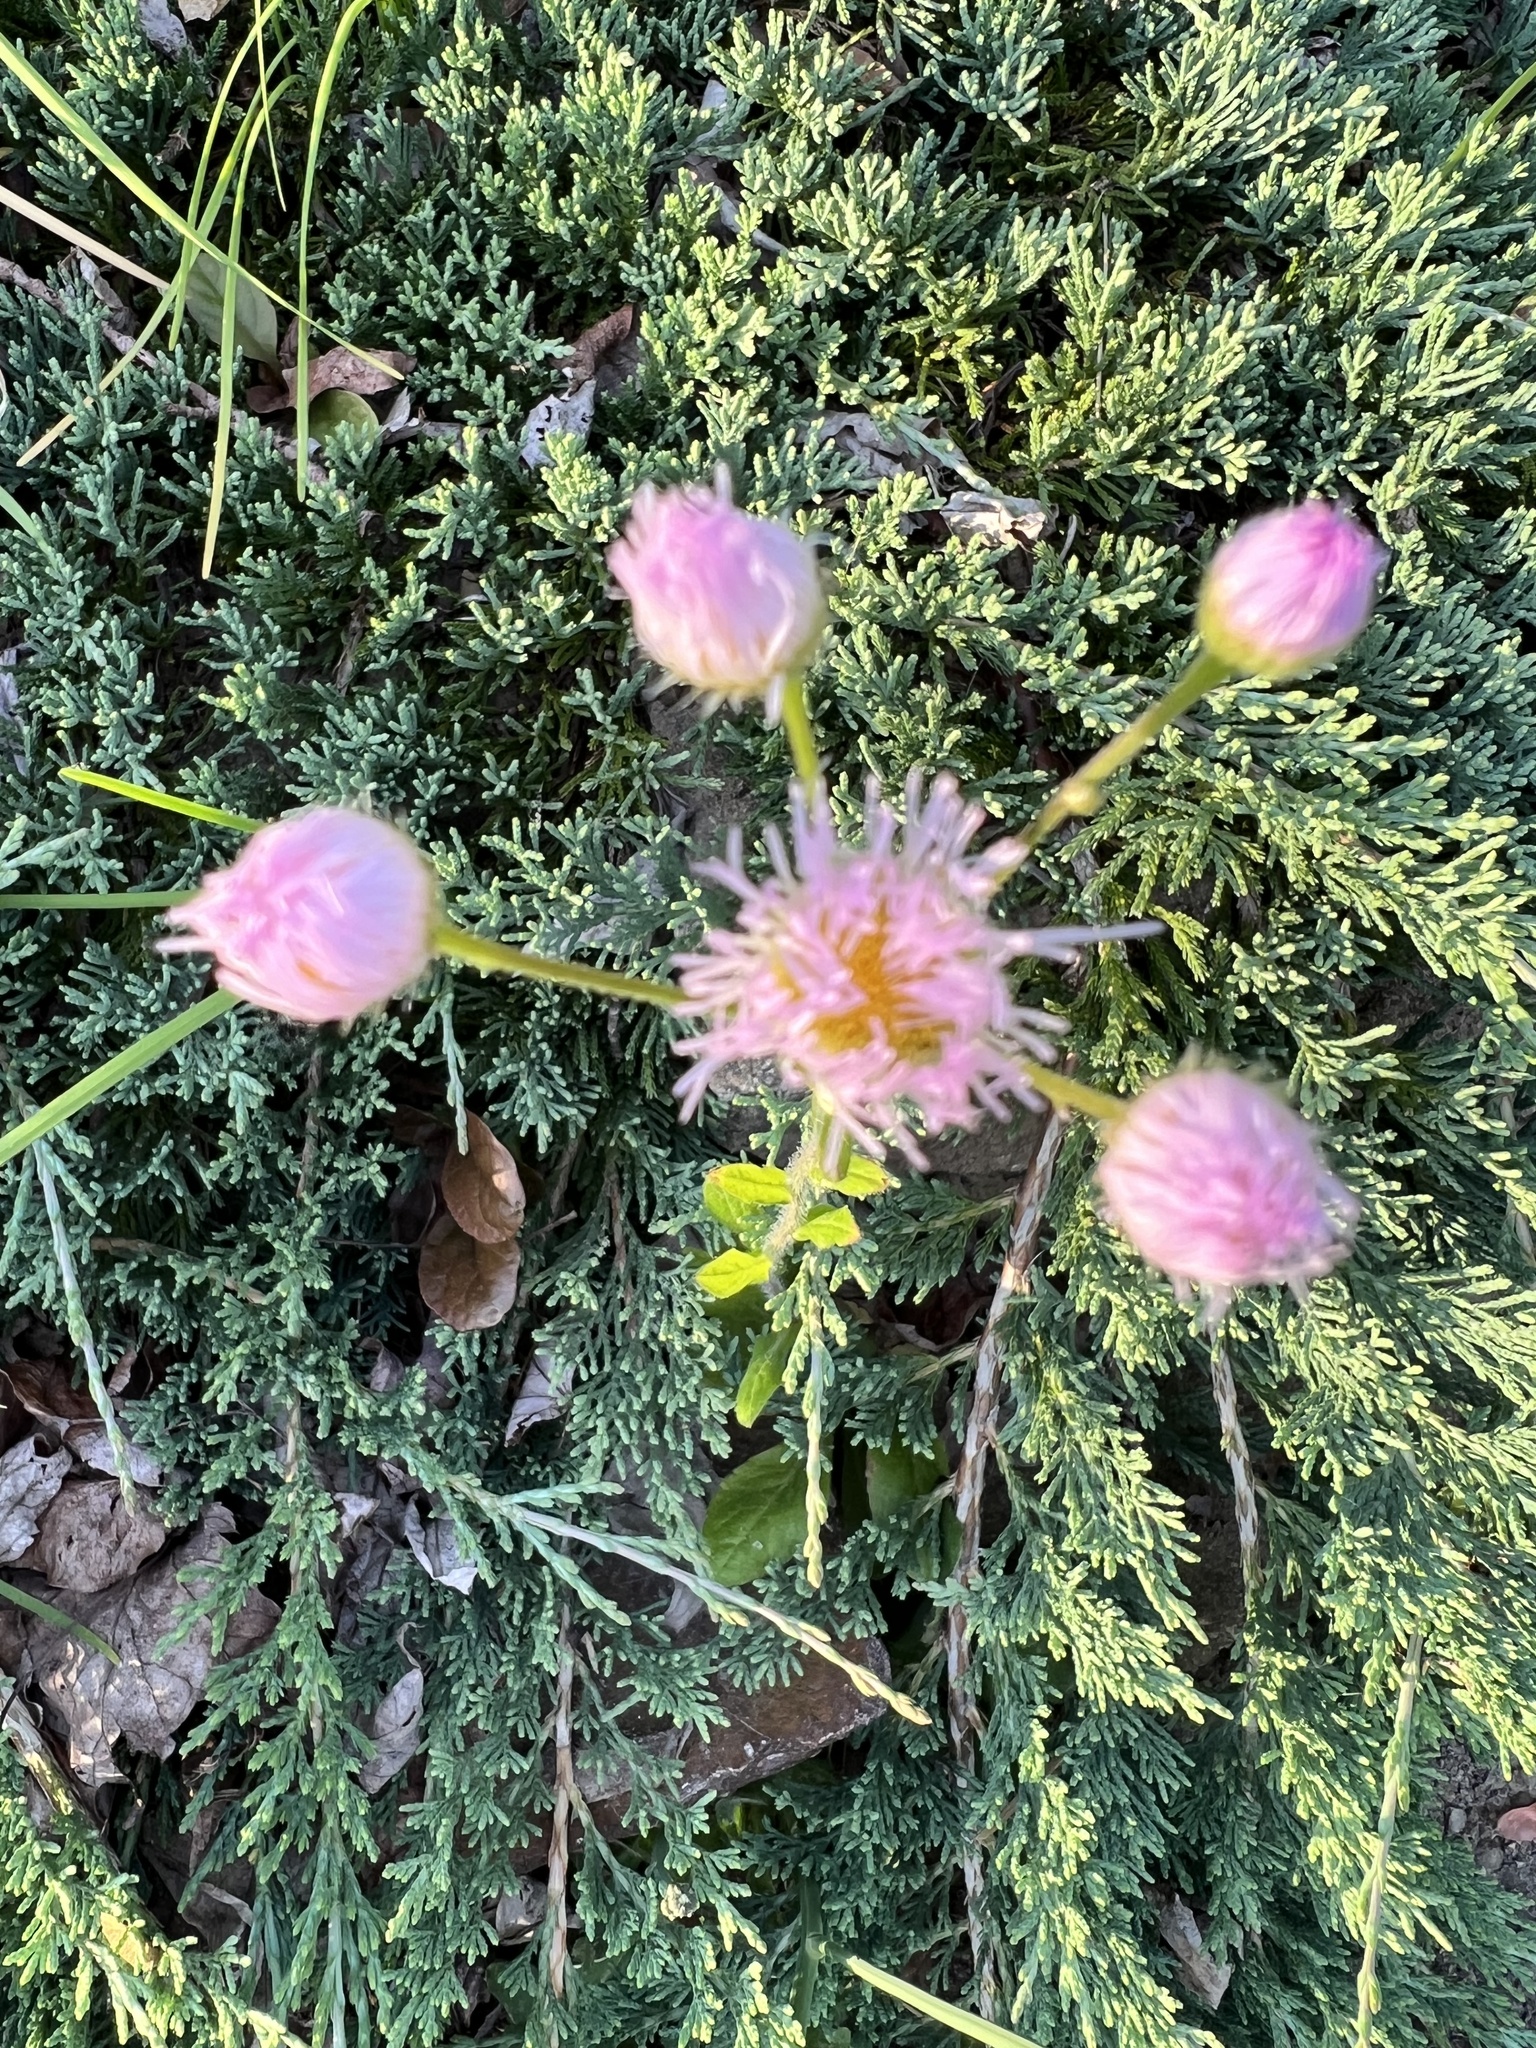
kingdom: Plantae
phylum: Tracheophyta
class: Magnoliopsida
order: Asterales
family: Asteraceae
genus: Erigeron
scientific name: Erigeron philadelphicus
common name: Robin's-plantain
